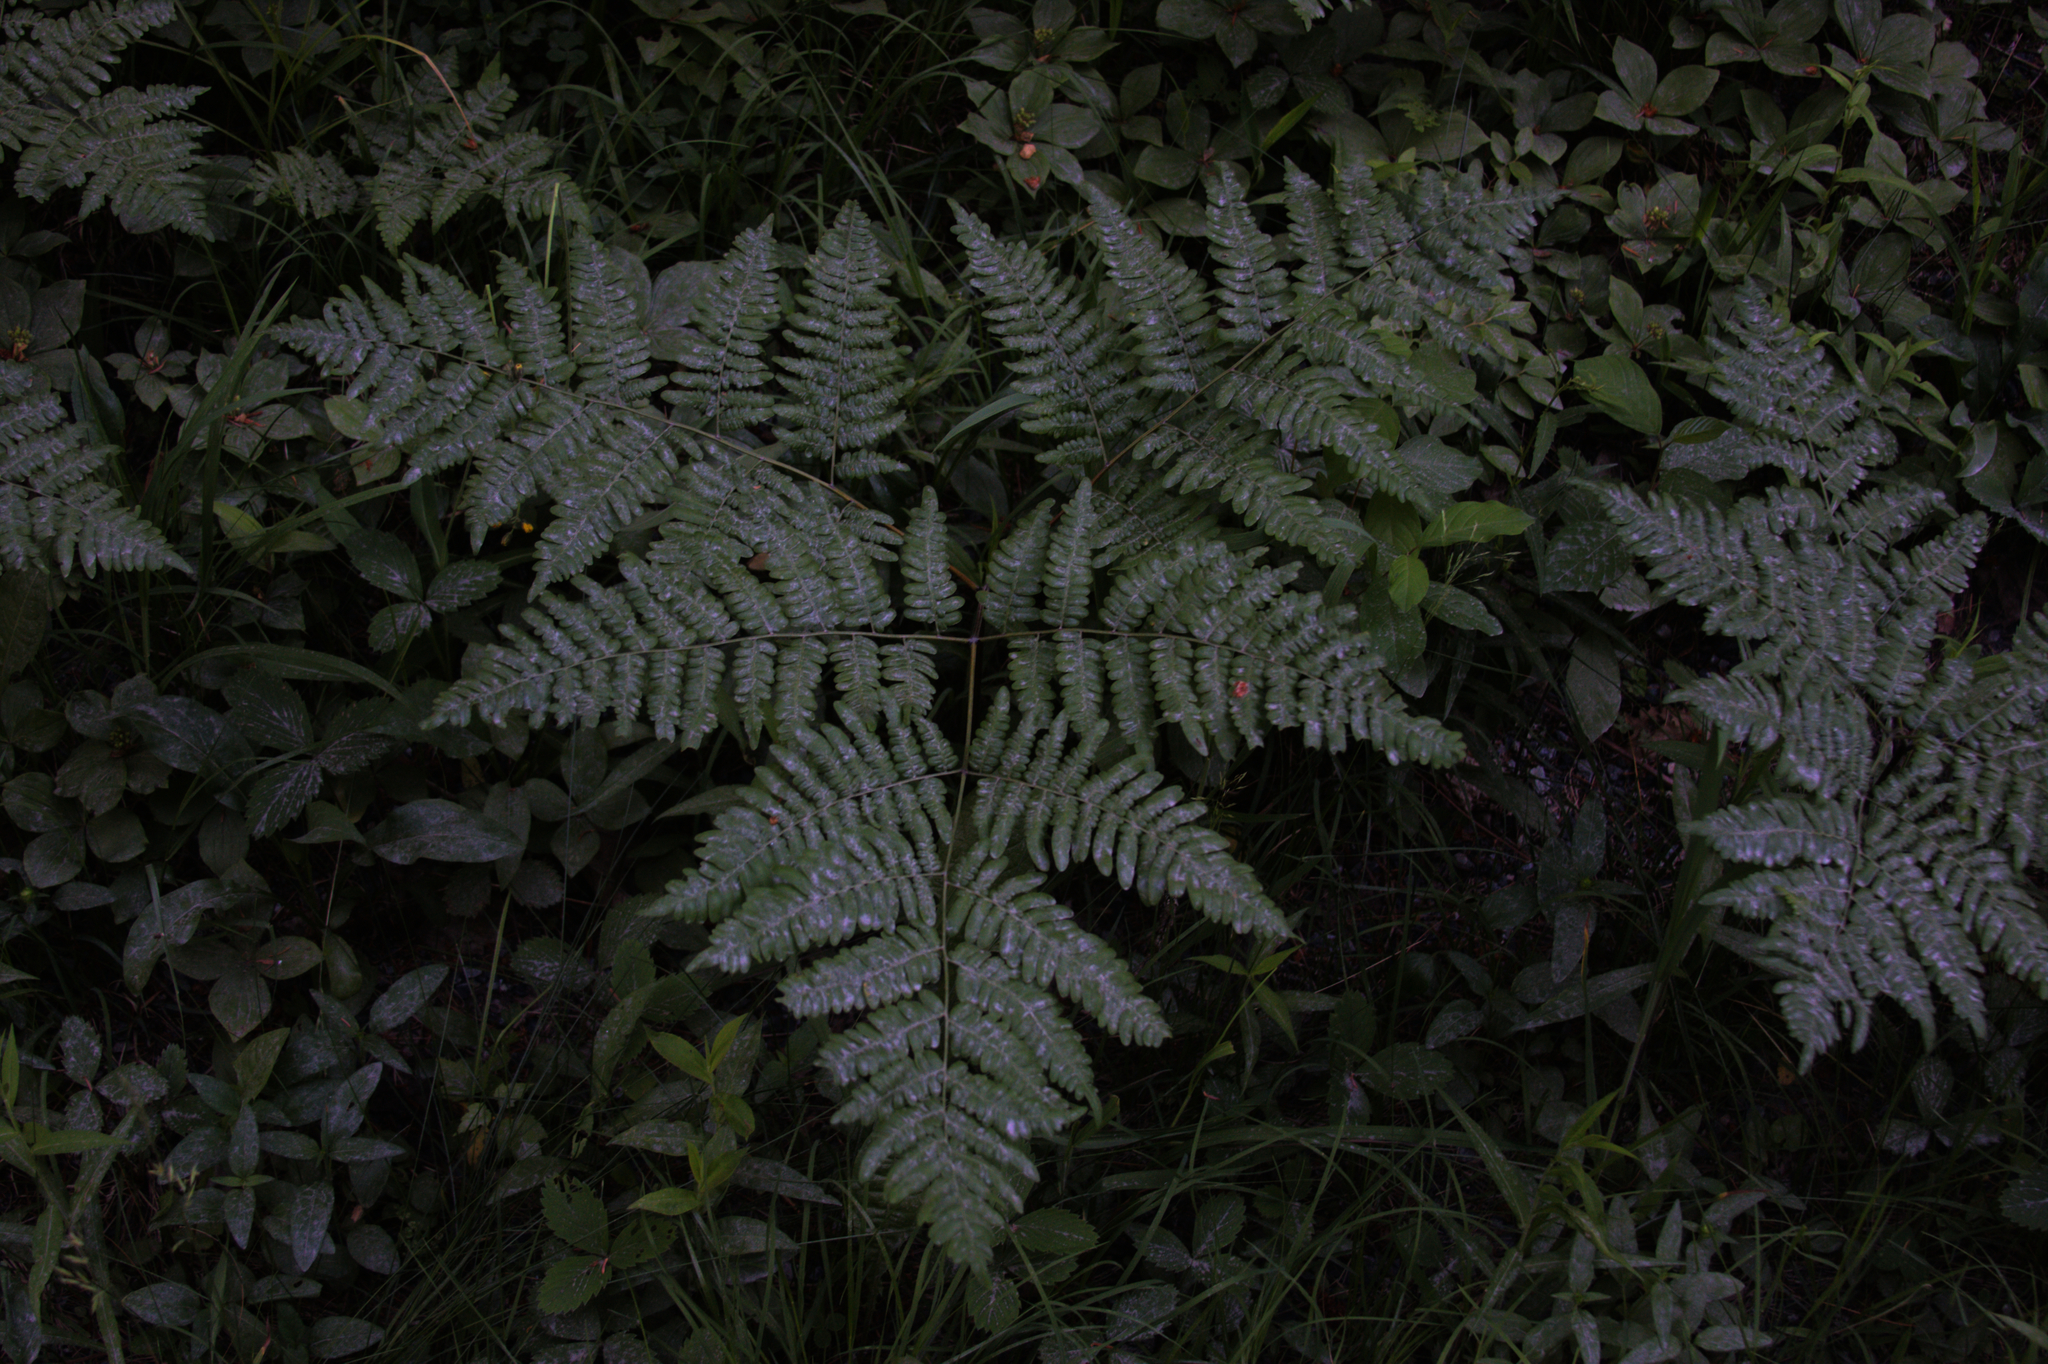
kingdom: Plantae
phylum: Tracheophyta
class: Polypodiopsida
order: Polypodiales
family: Dennstaedtiaceae
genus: Pteridium
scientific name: Pteridium aquilinum
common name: Bracken
